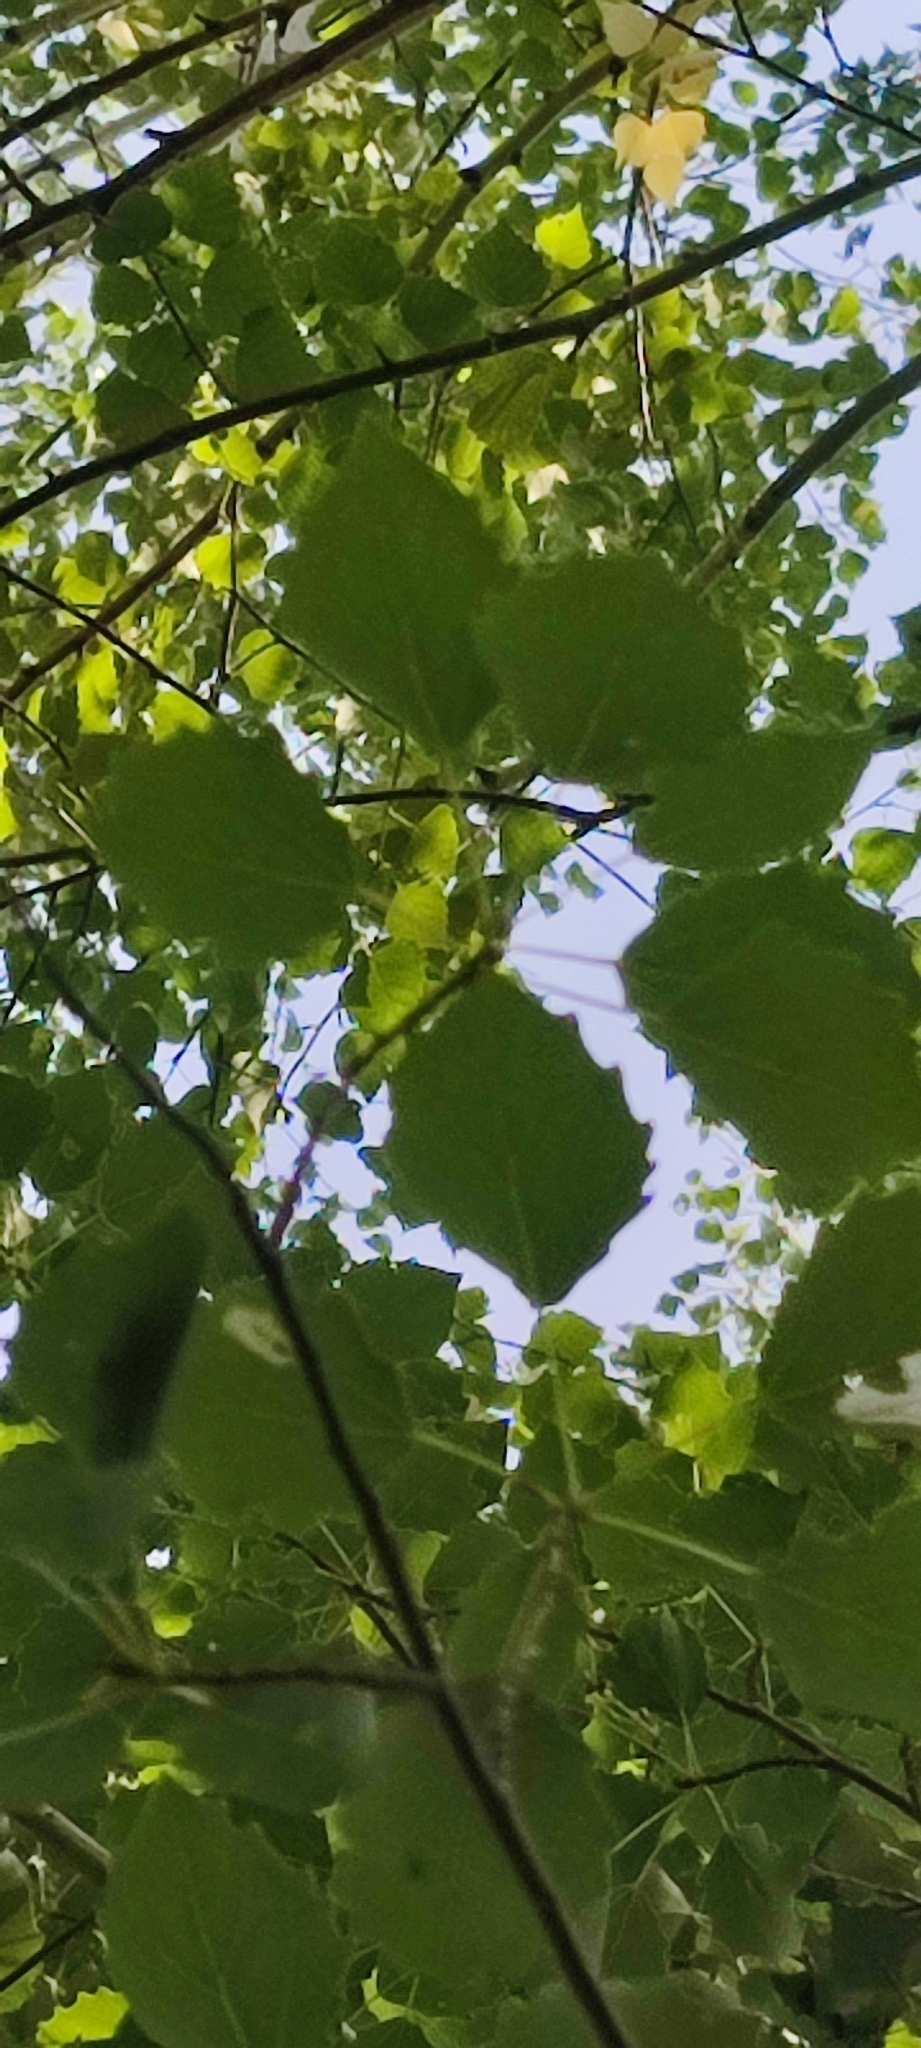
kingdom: Plantae
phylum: Tracheophyta
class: Magnoliopsida
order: Malpighiales
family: Salicaceae
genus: Populus
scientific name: Populus tremula
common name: European aspen
